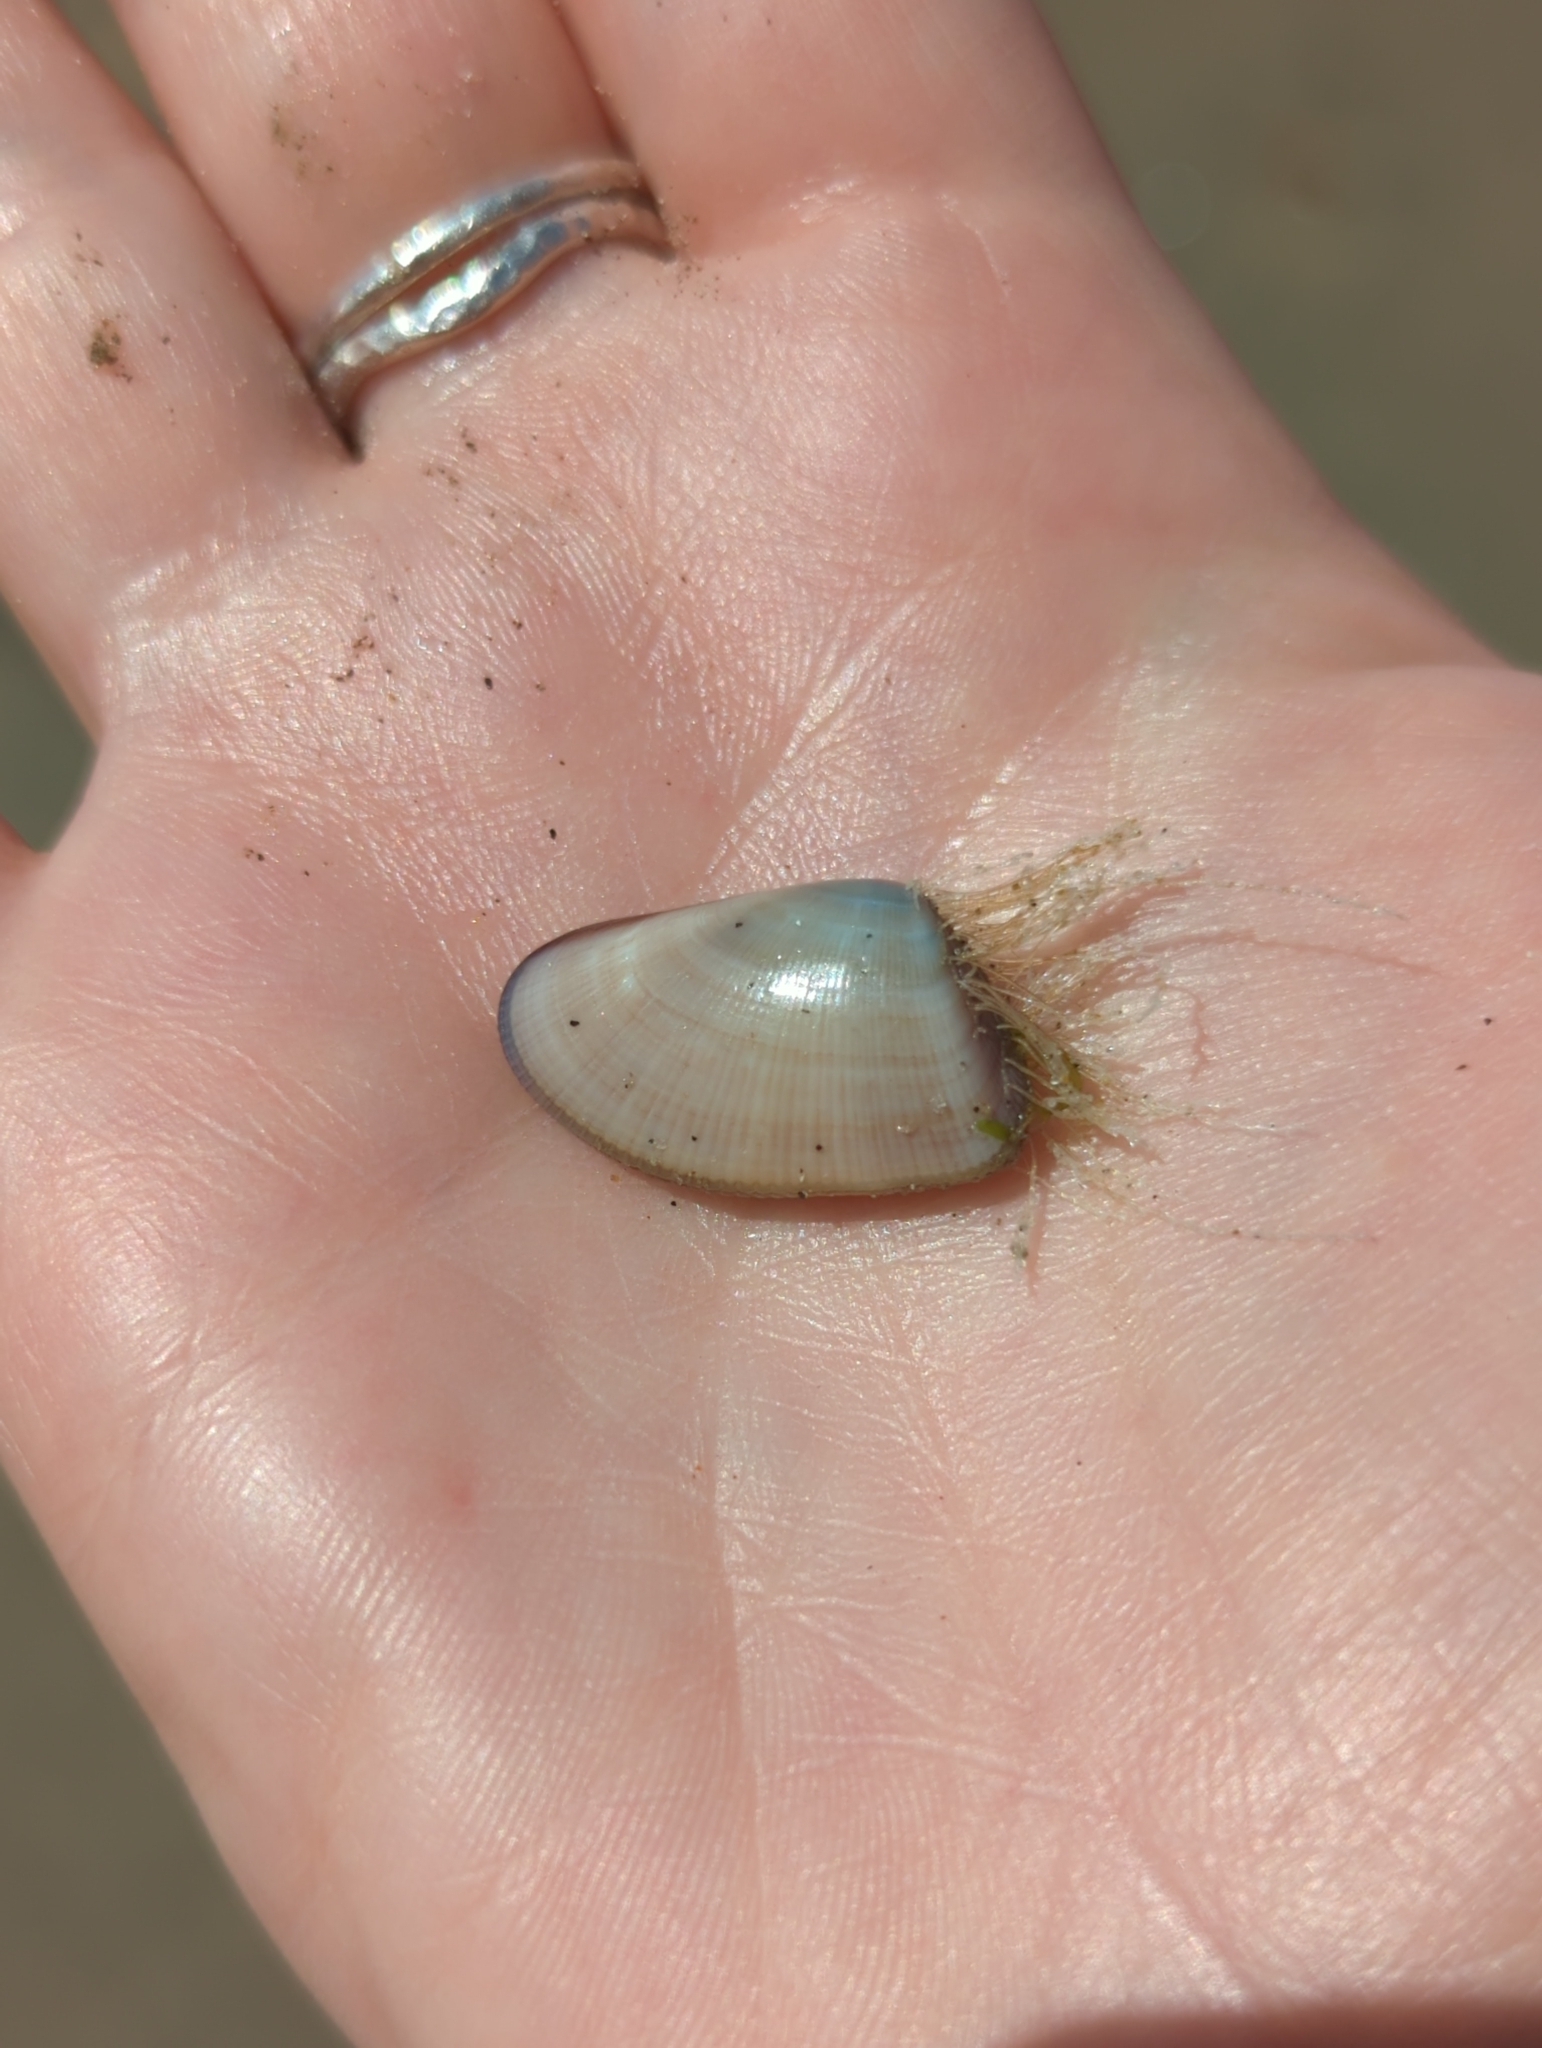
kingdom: Animalia
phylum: Mollusca
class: Bivalvia
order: Cardiida
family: Donacidae
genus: Donax
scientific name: Donax gouldii
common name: Gould beanclam
